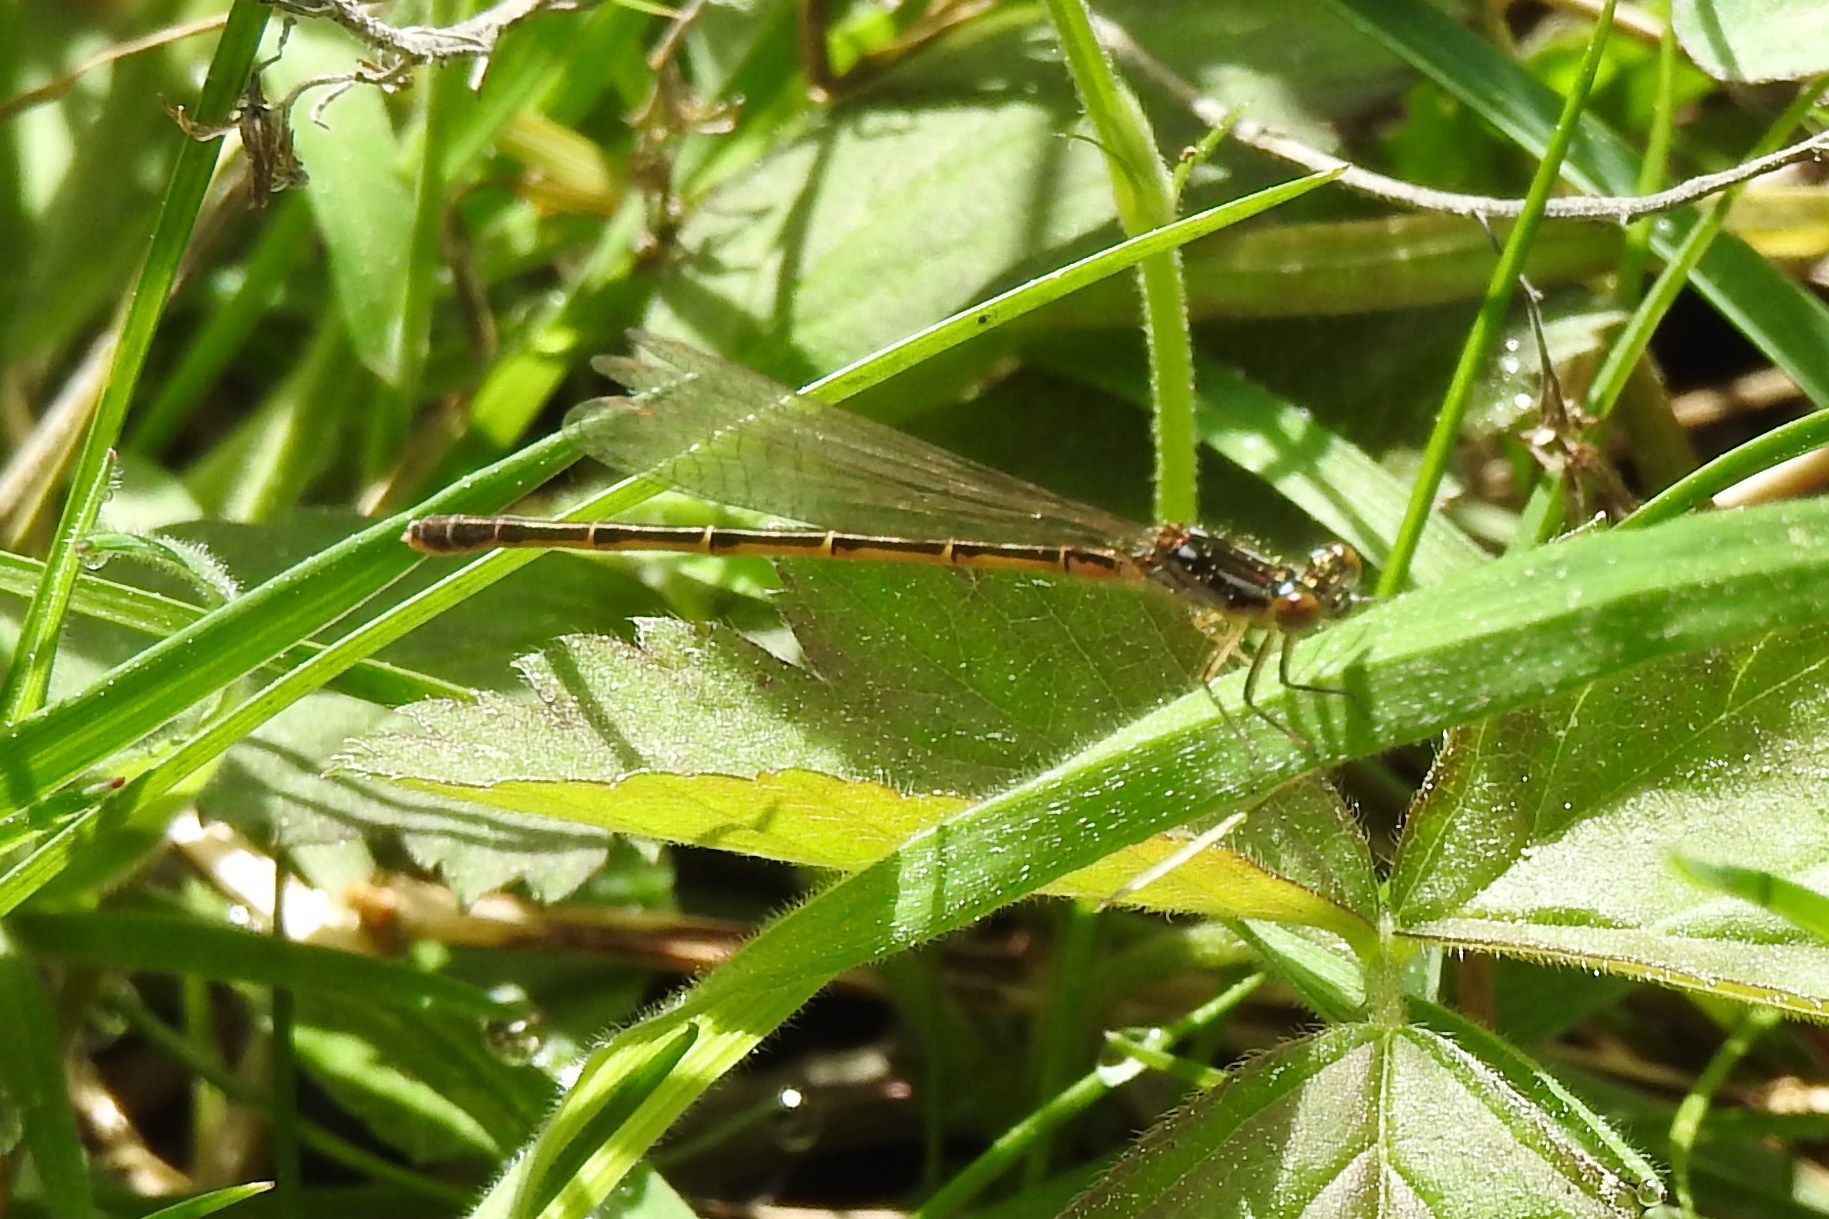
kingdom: Animalia
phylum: Arthropoda
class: Insecta
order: Odonata
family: Coenagrionidae
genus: Ischnura
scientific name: Ischnura posita
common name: Fragile forktail
